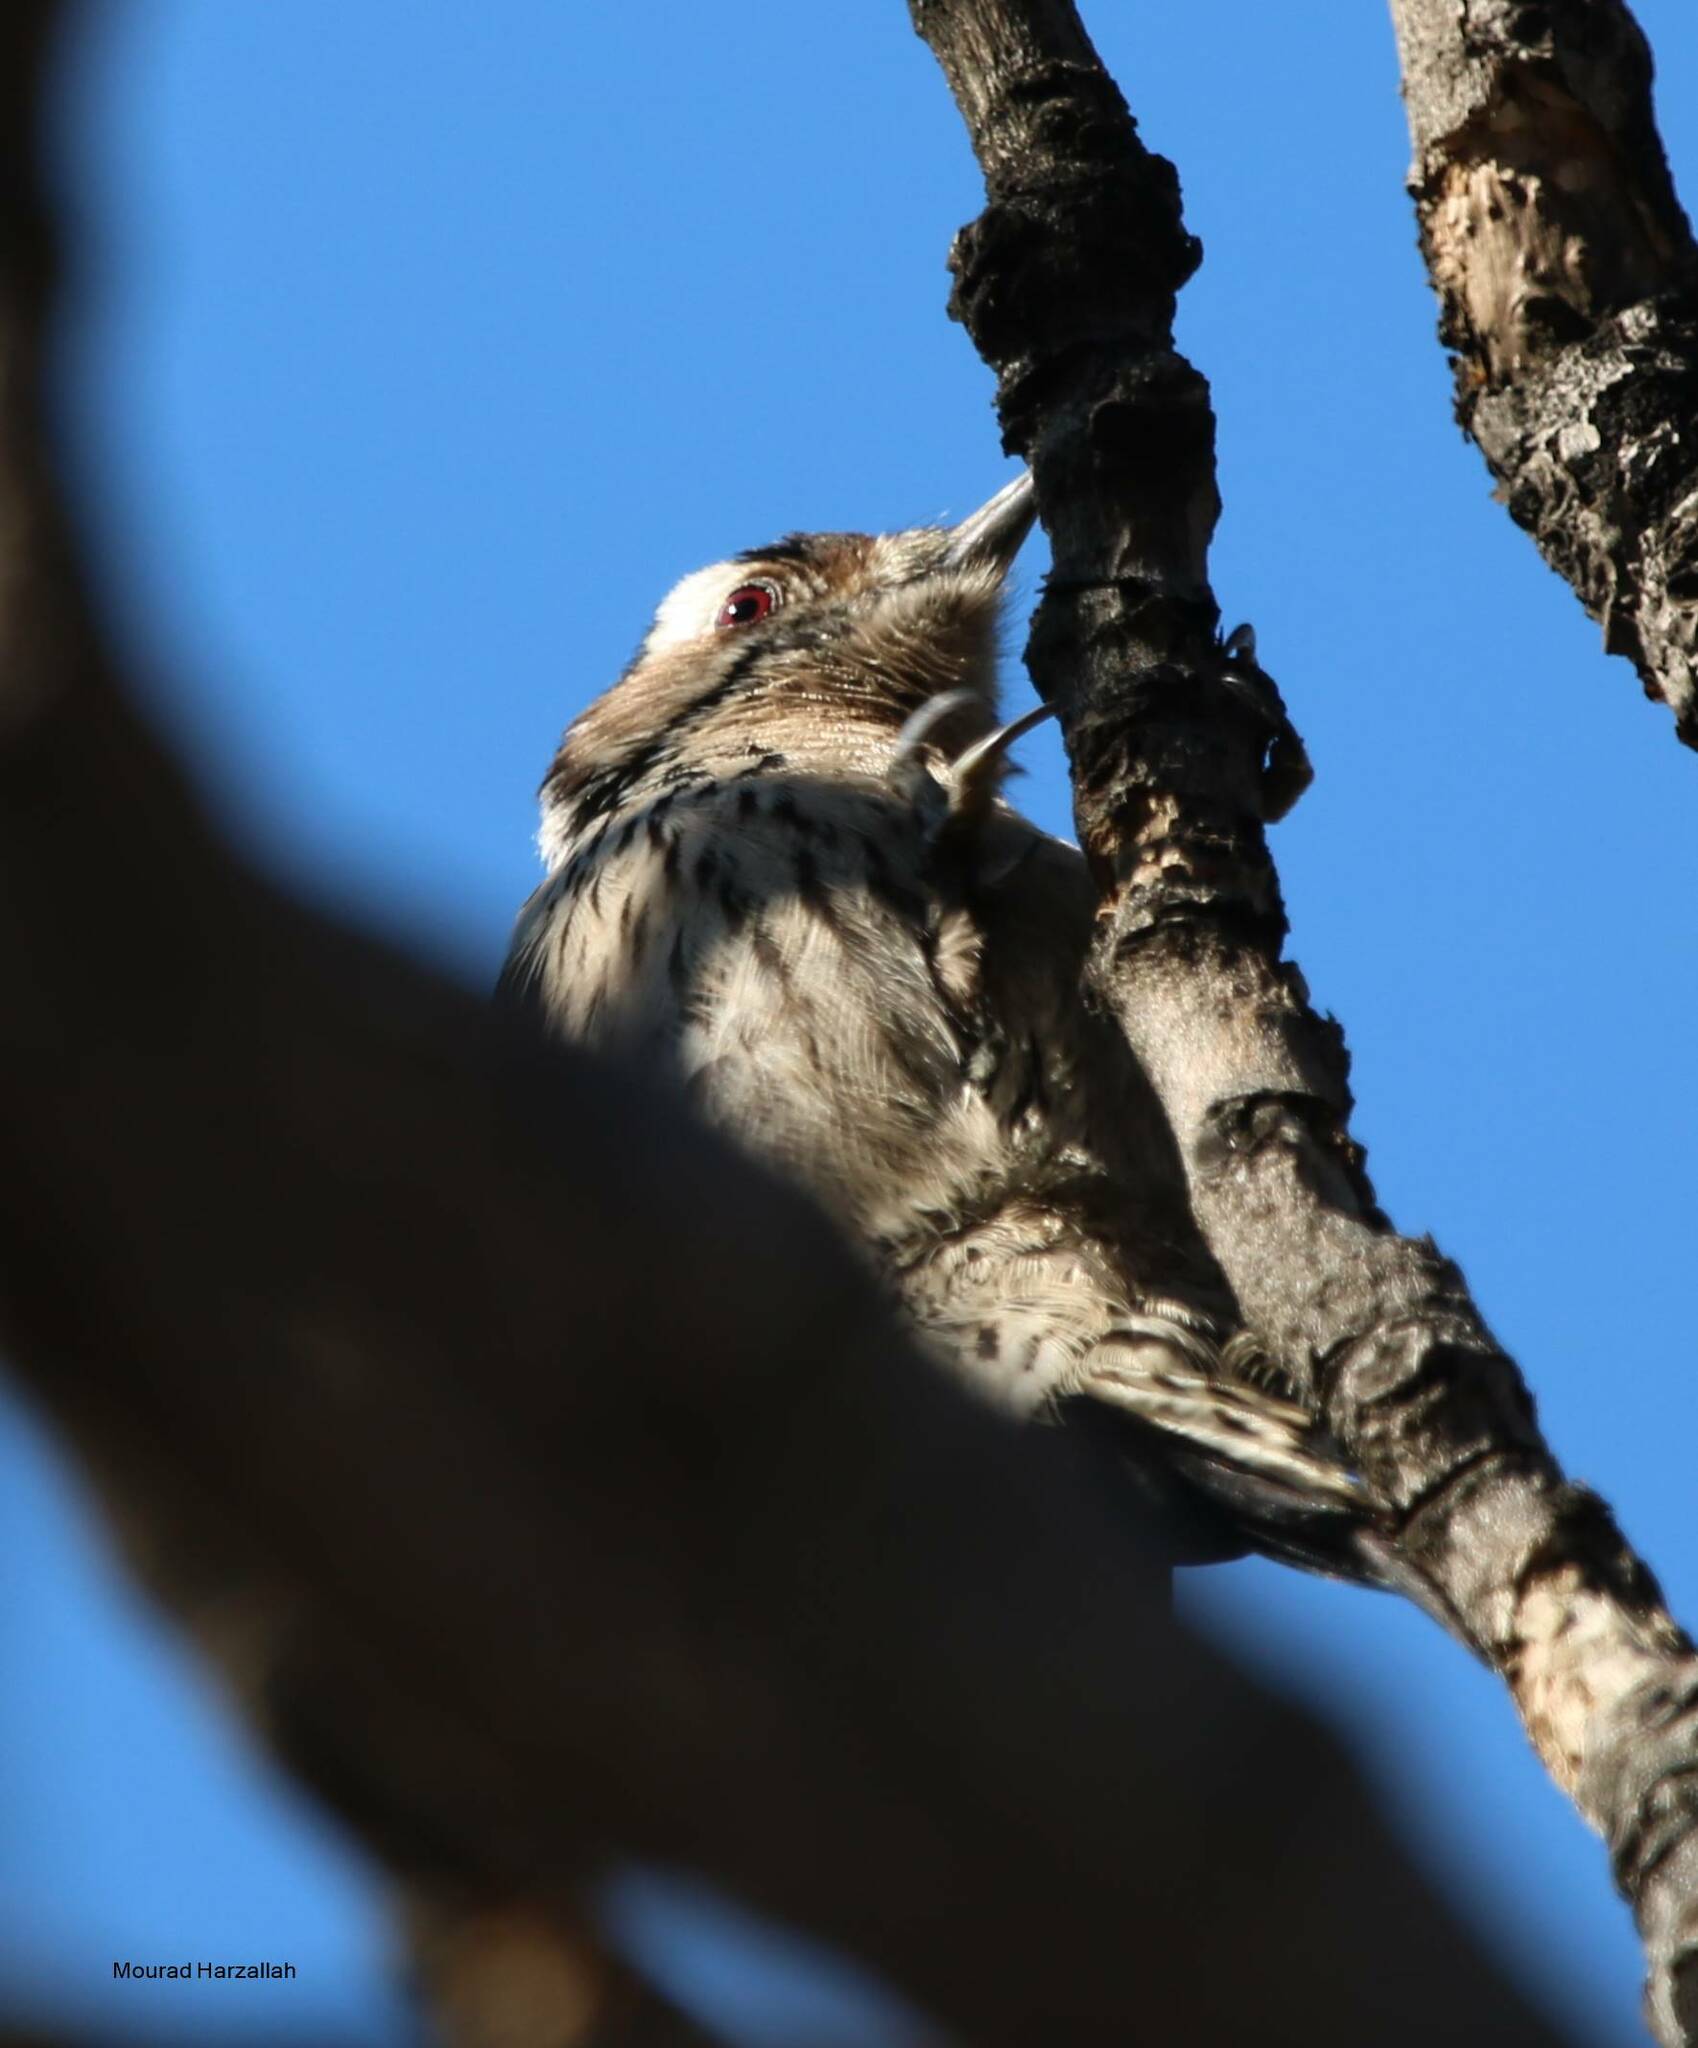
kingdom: Animalia
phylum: Chordata
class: Aves
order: Piciformes
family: Picidae
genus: Dryobates
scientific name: Dryobates minor
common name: Lesser spotted woodpecker
